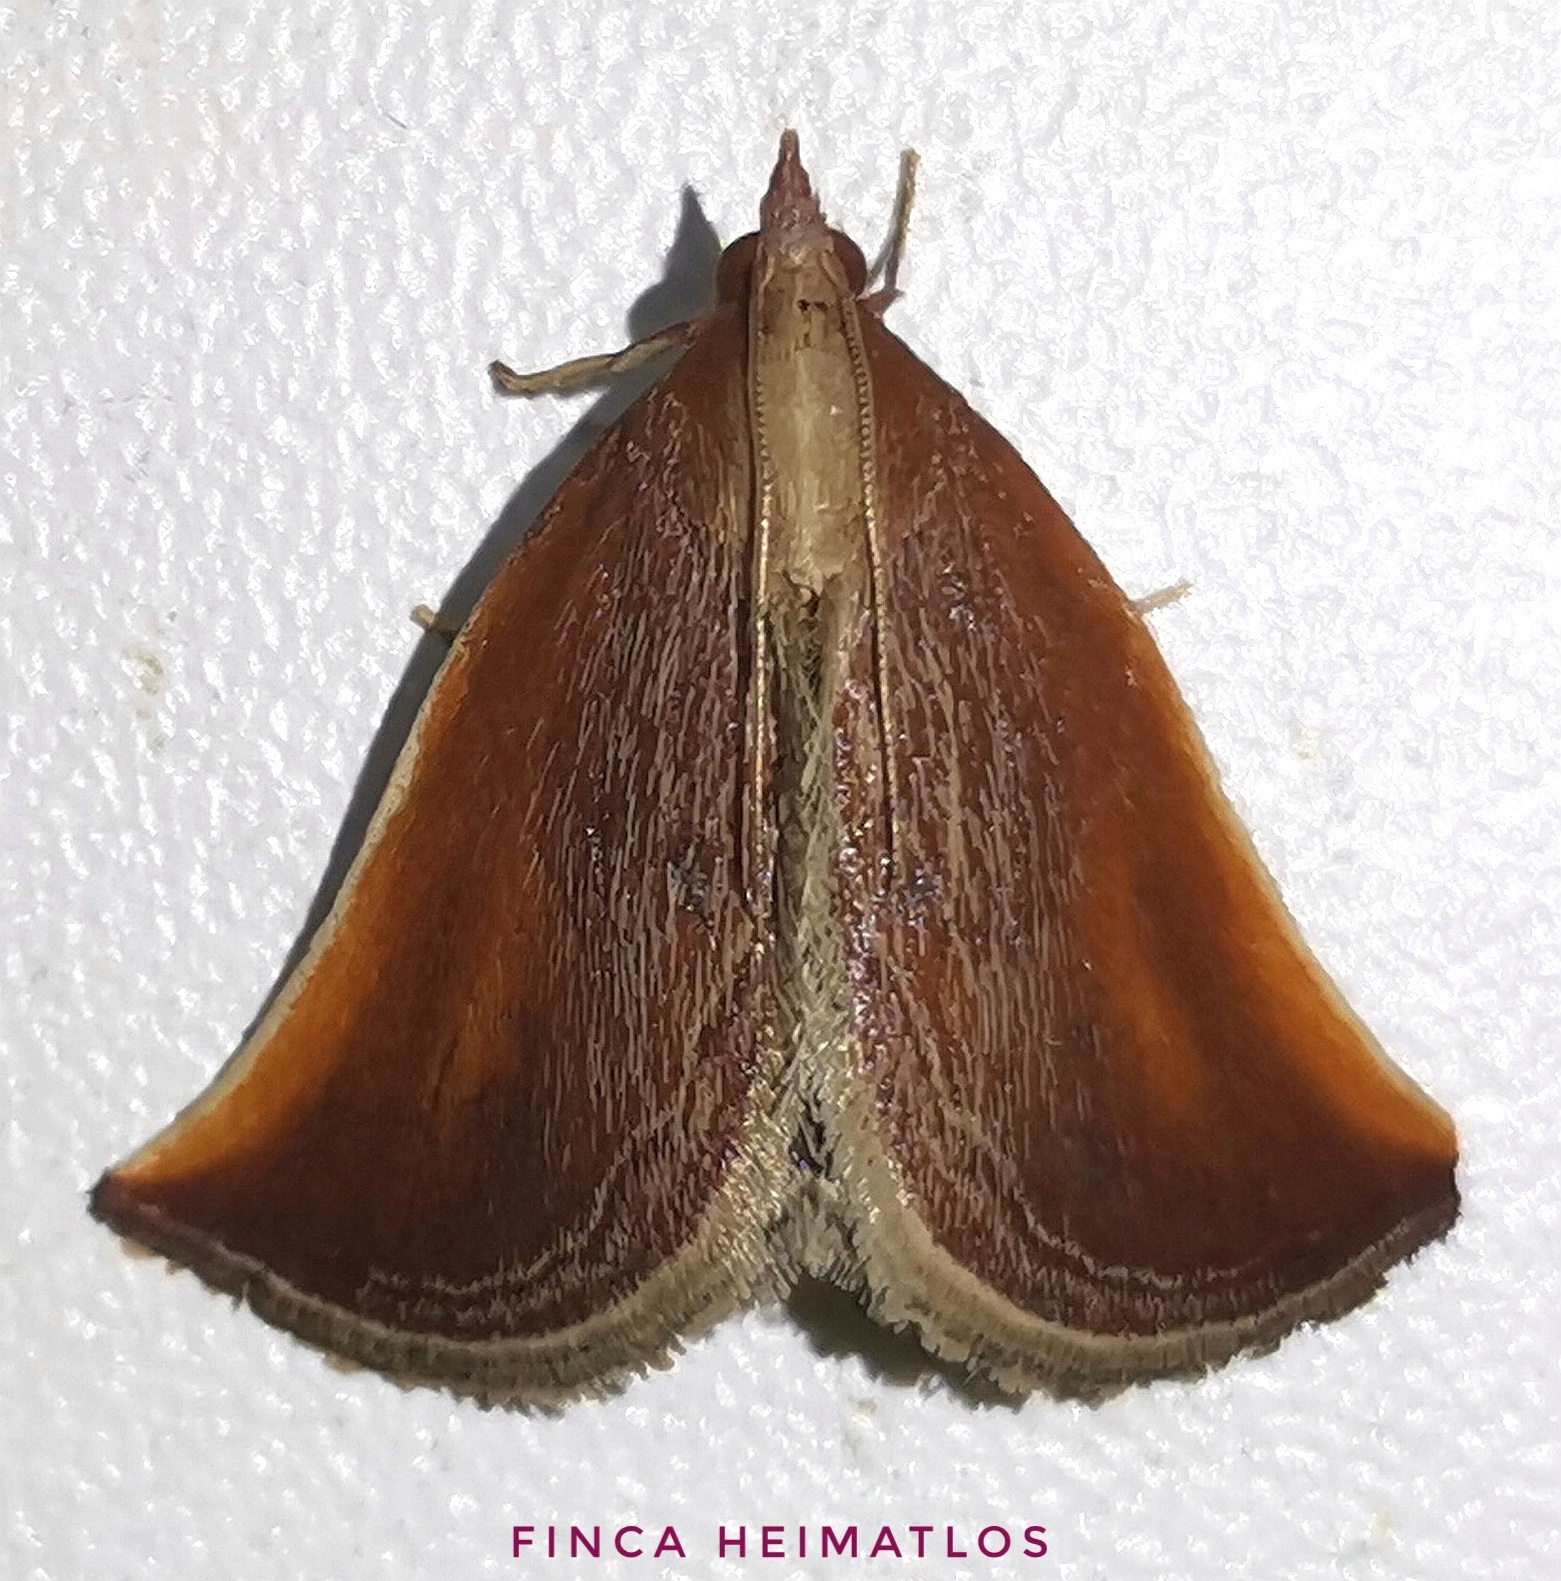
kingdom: Animalia
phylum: Arthropoda
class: Insecta
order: Lepidoptera
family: Pyralidae
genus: Zanclodes
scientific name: Zanclodes falculalis
